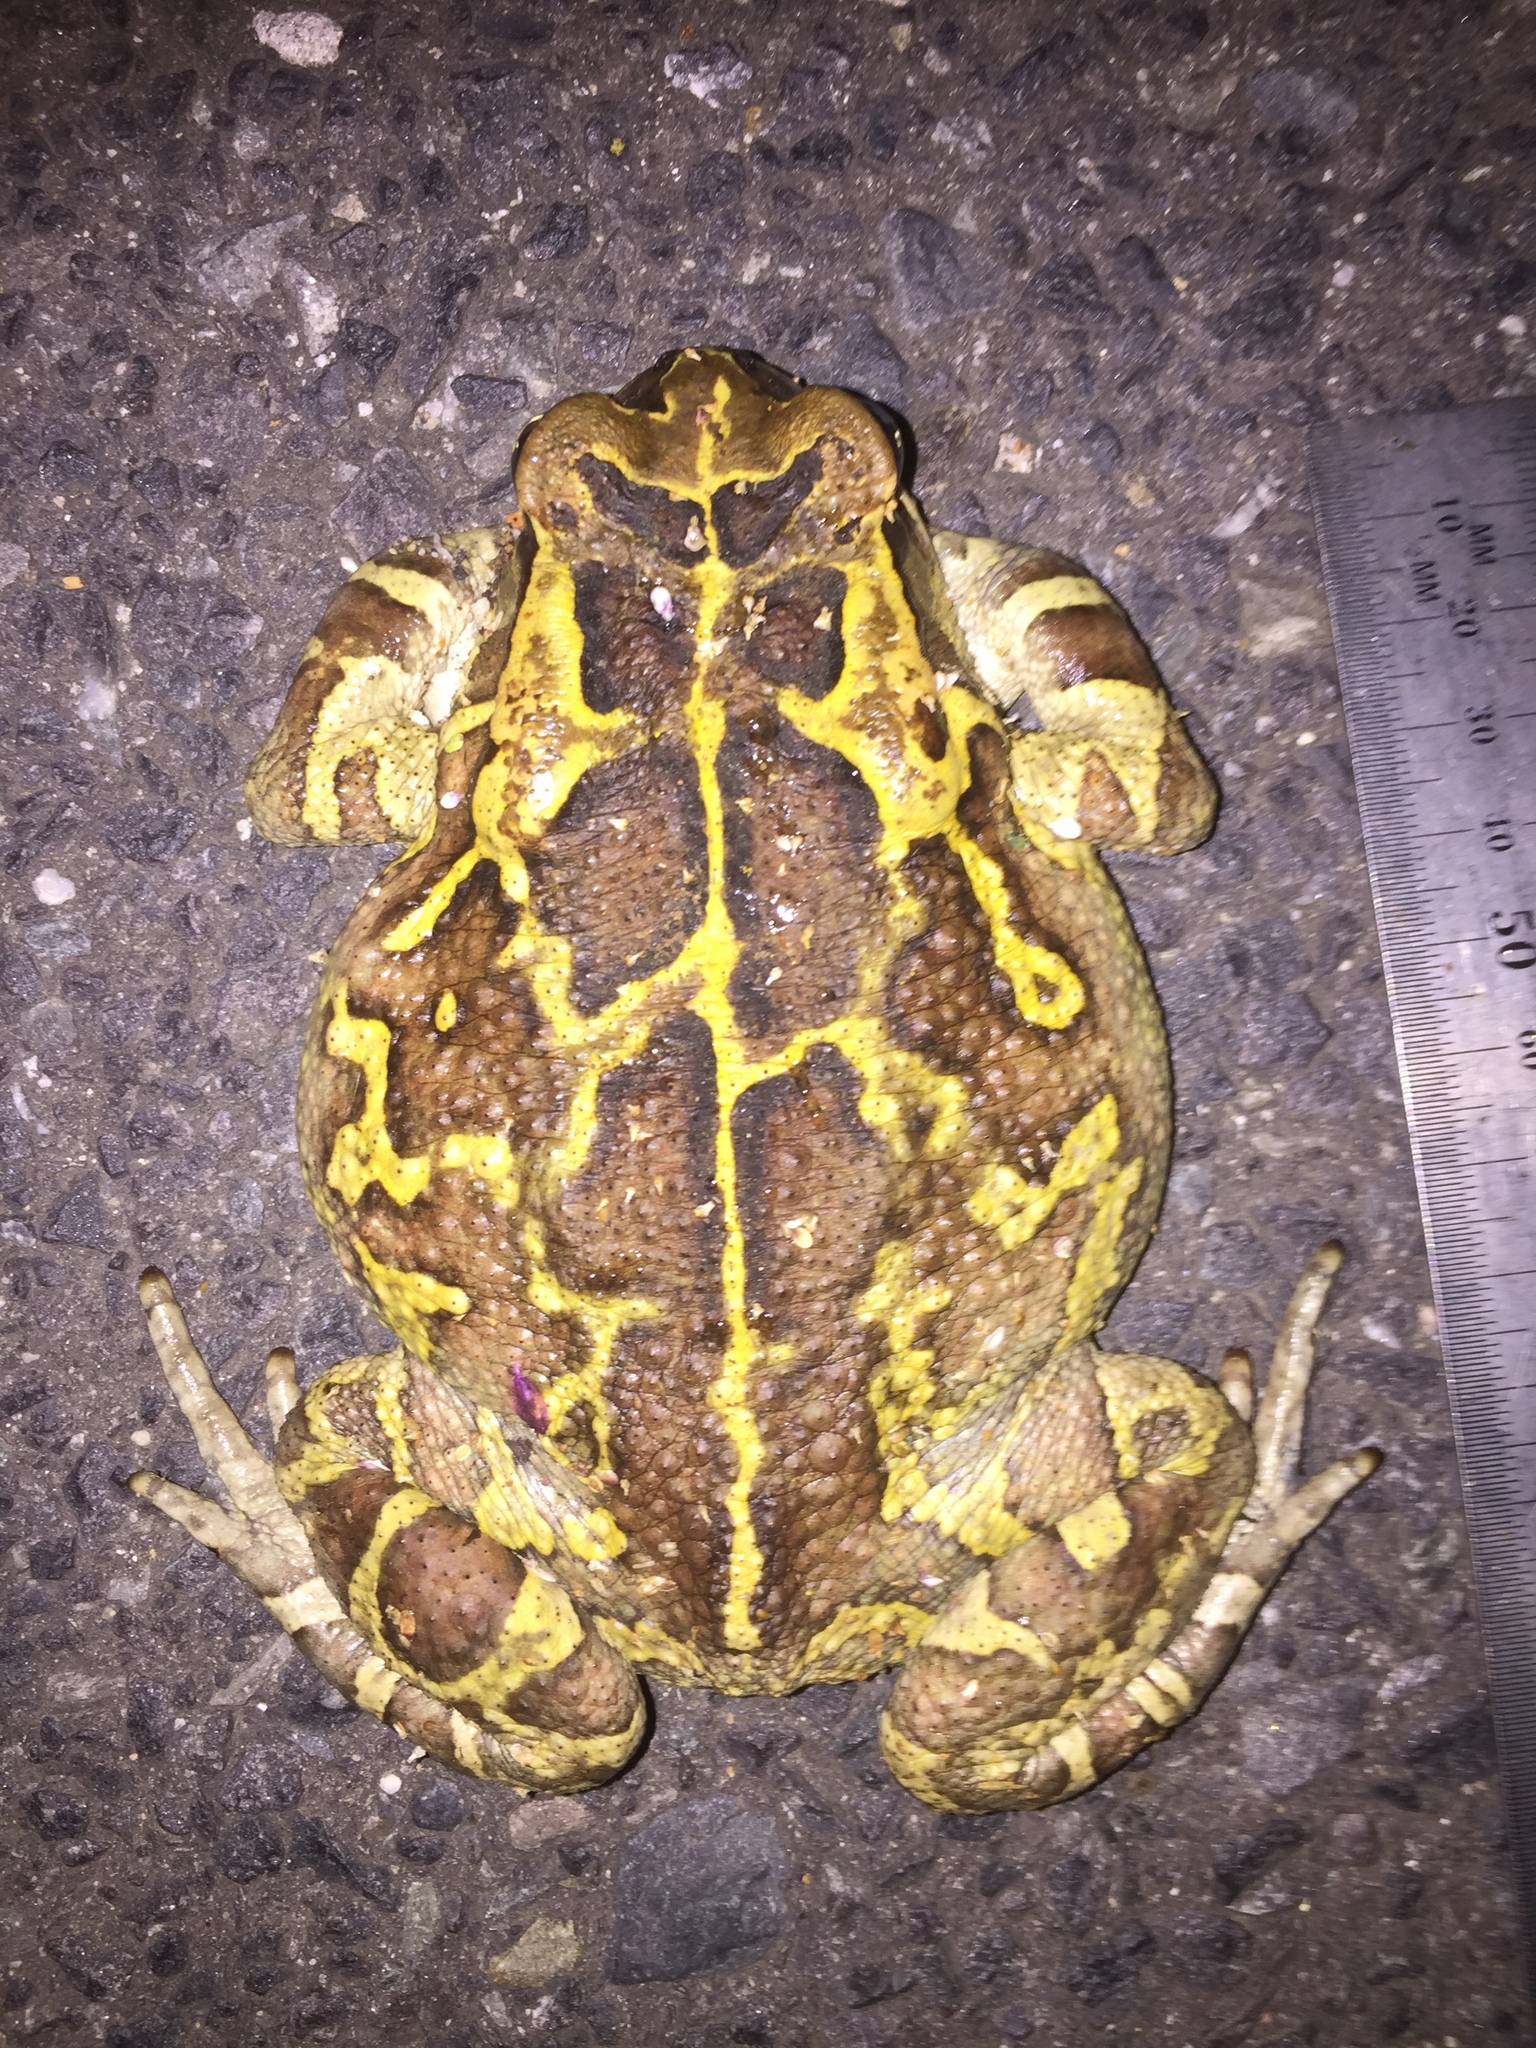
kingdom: Animalia
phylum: Chordata
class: Amphibia
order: Anura
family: Bufonidae
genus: Sclerophrys
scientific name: Sclerophrys pantherina
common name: Panther toad
